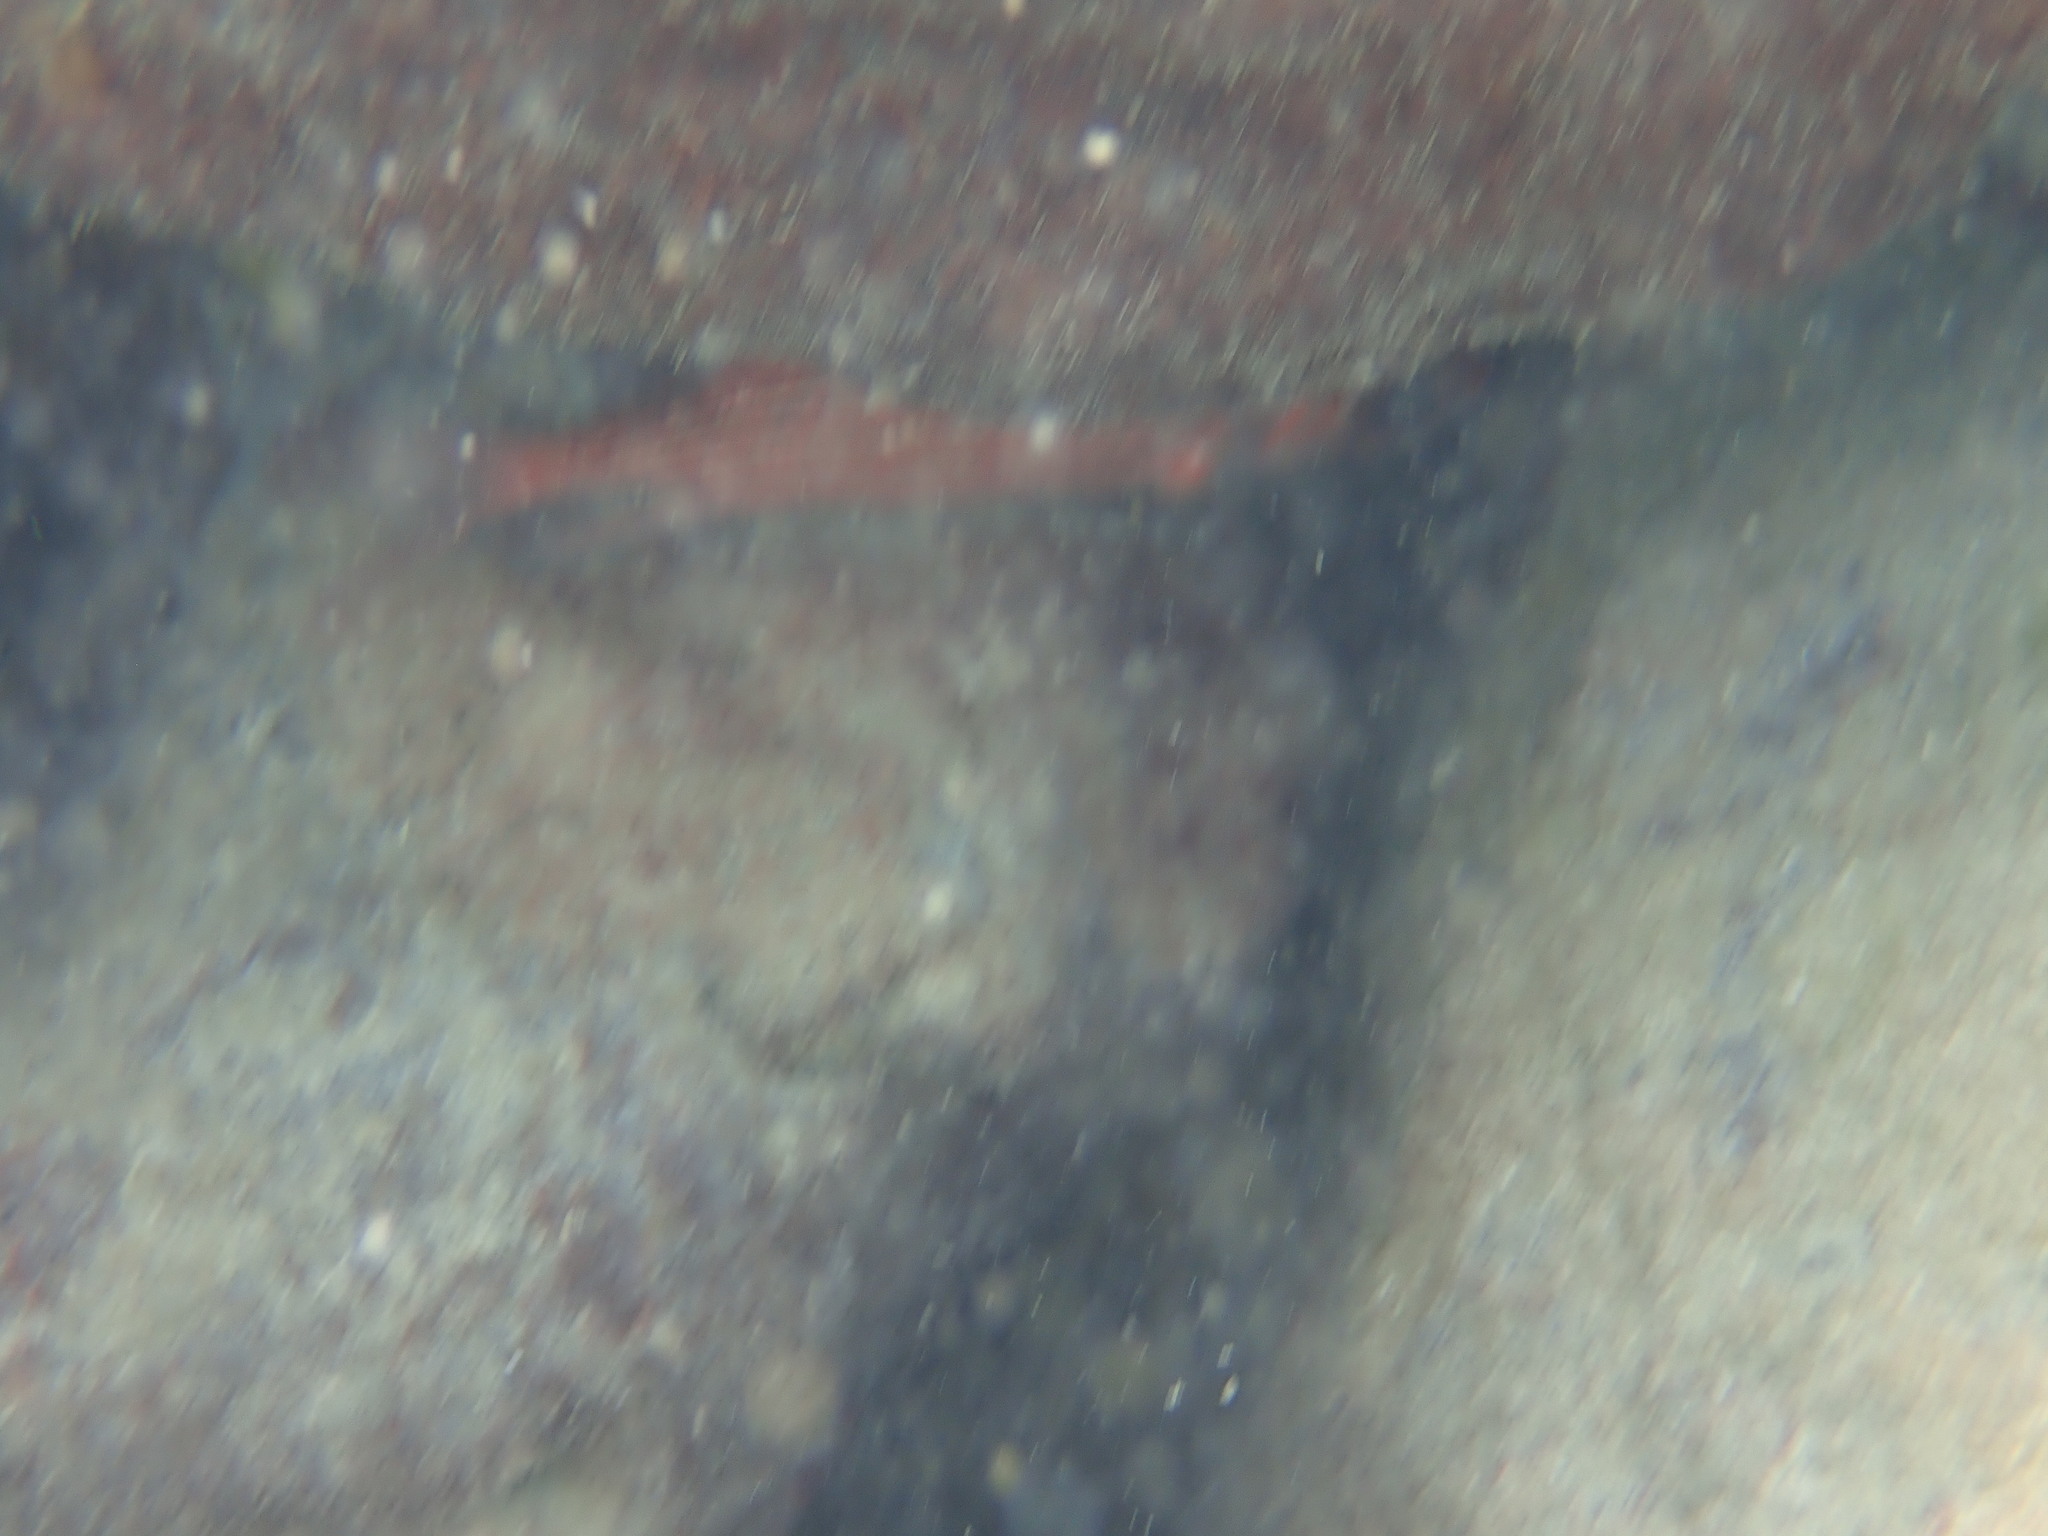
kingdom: Animalia
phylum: Chordata
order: Beryciformes
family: Holocentridae
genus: Neoniphon
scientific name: Neoniphon vexillarium
